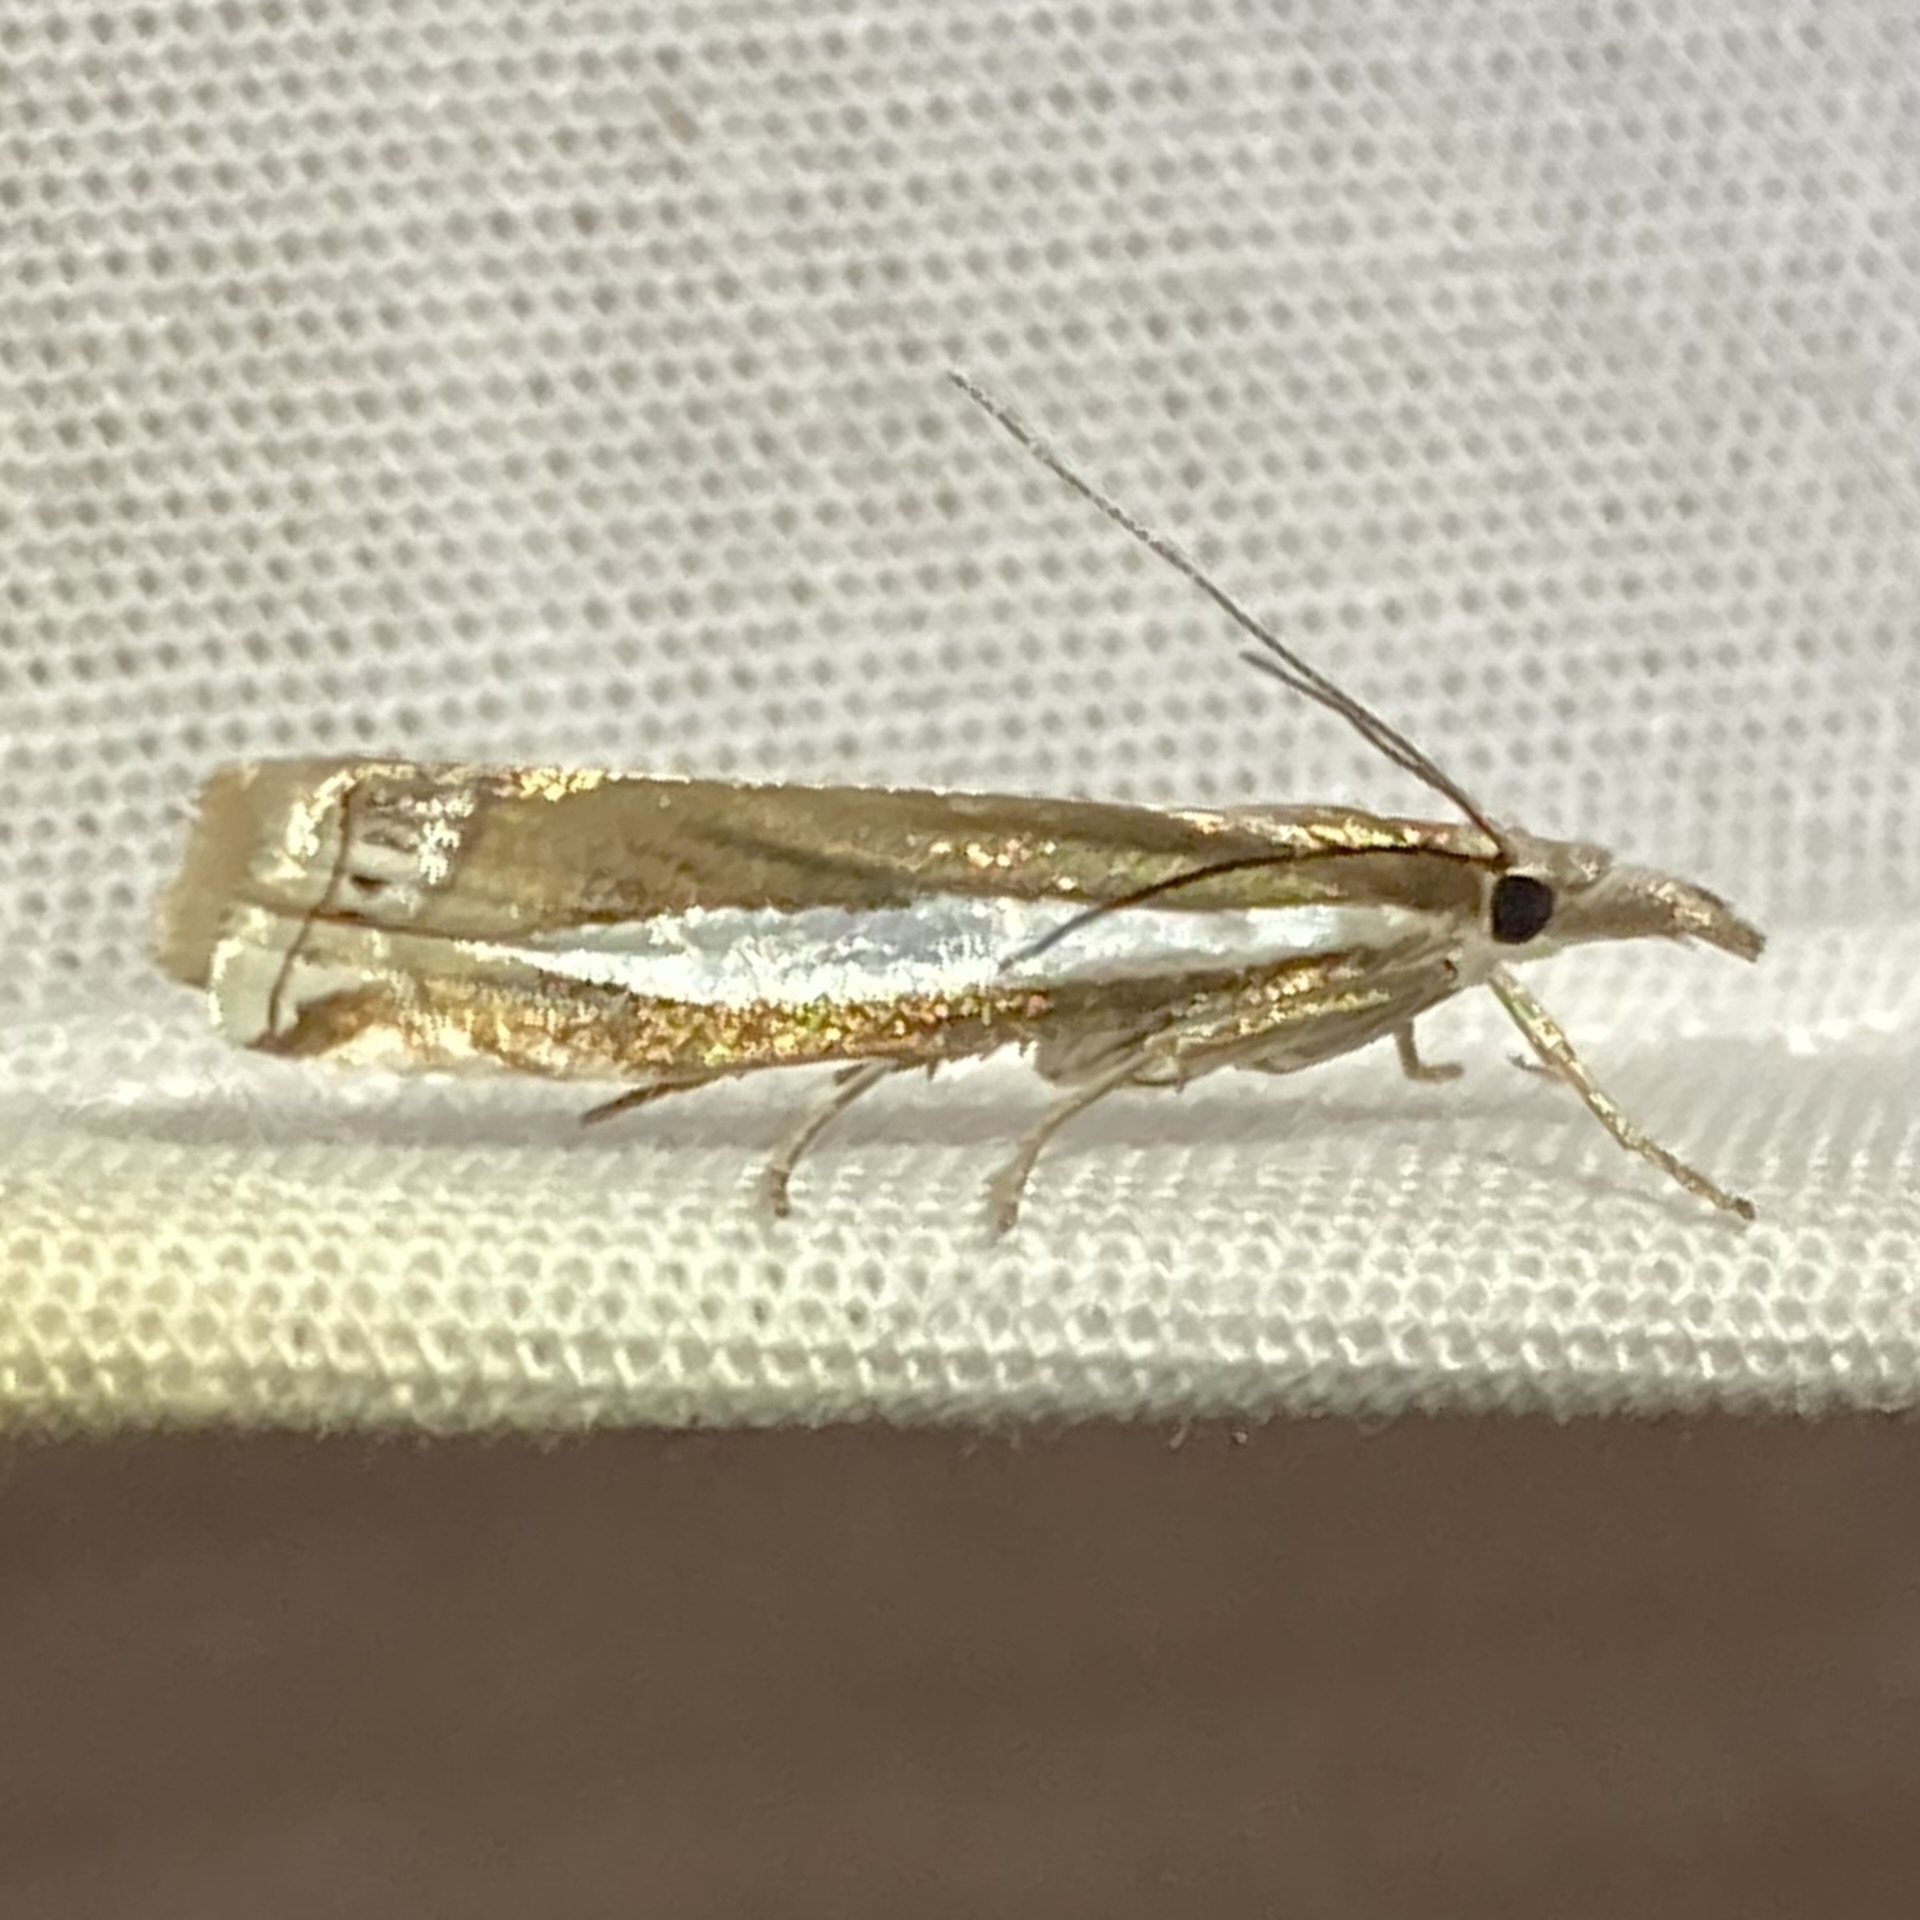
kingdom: Animalia
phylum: Arthropoda
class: Insecta
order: Lepidoptera
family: Crambidae
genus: Crambus
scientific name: Crambus praefectellus
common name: Common grass-veneer
